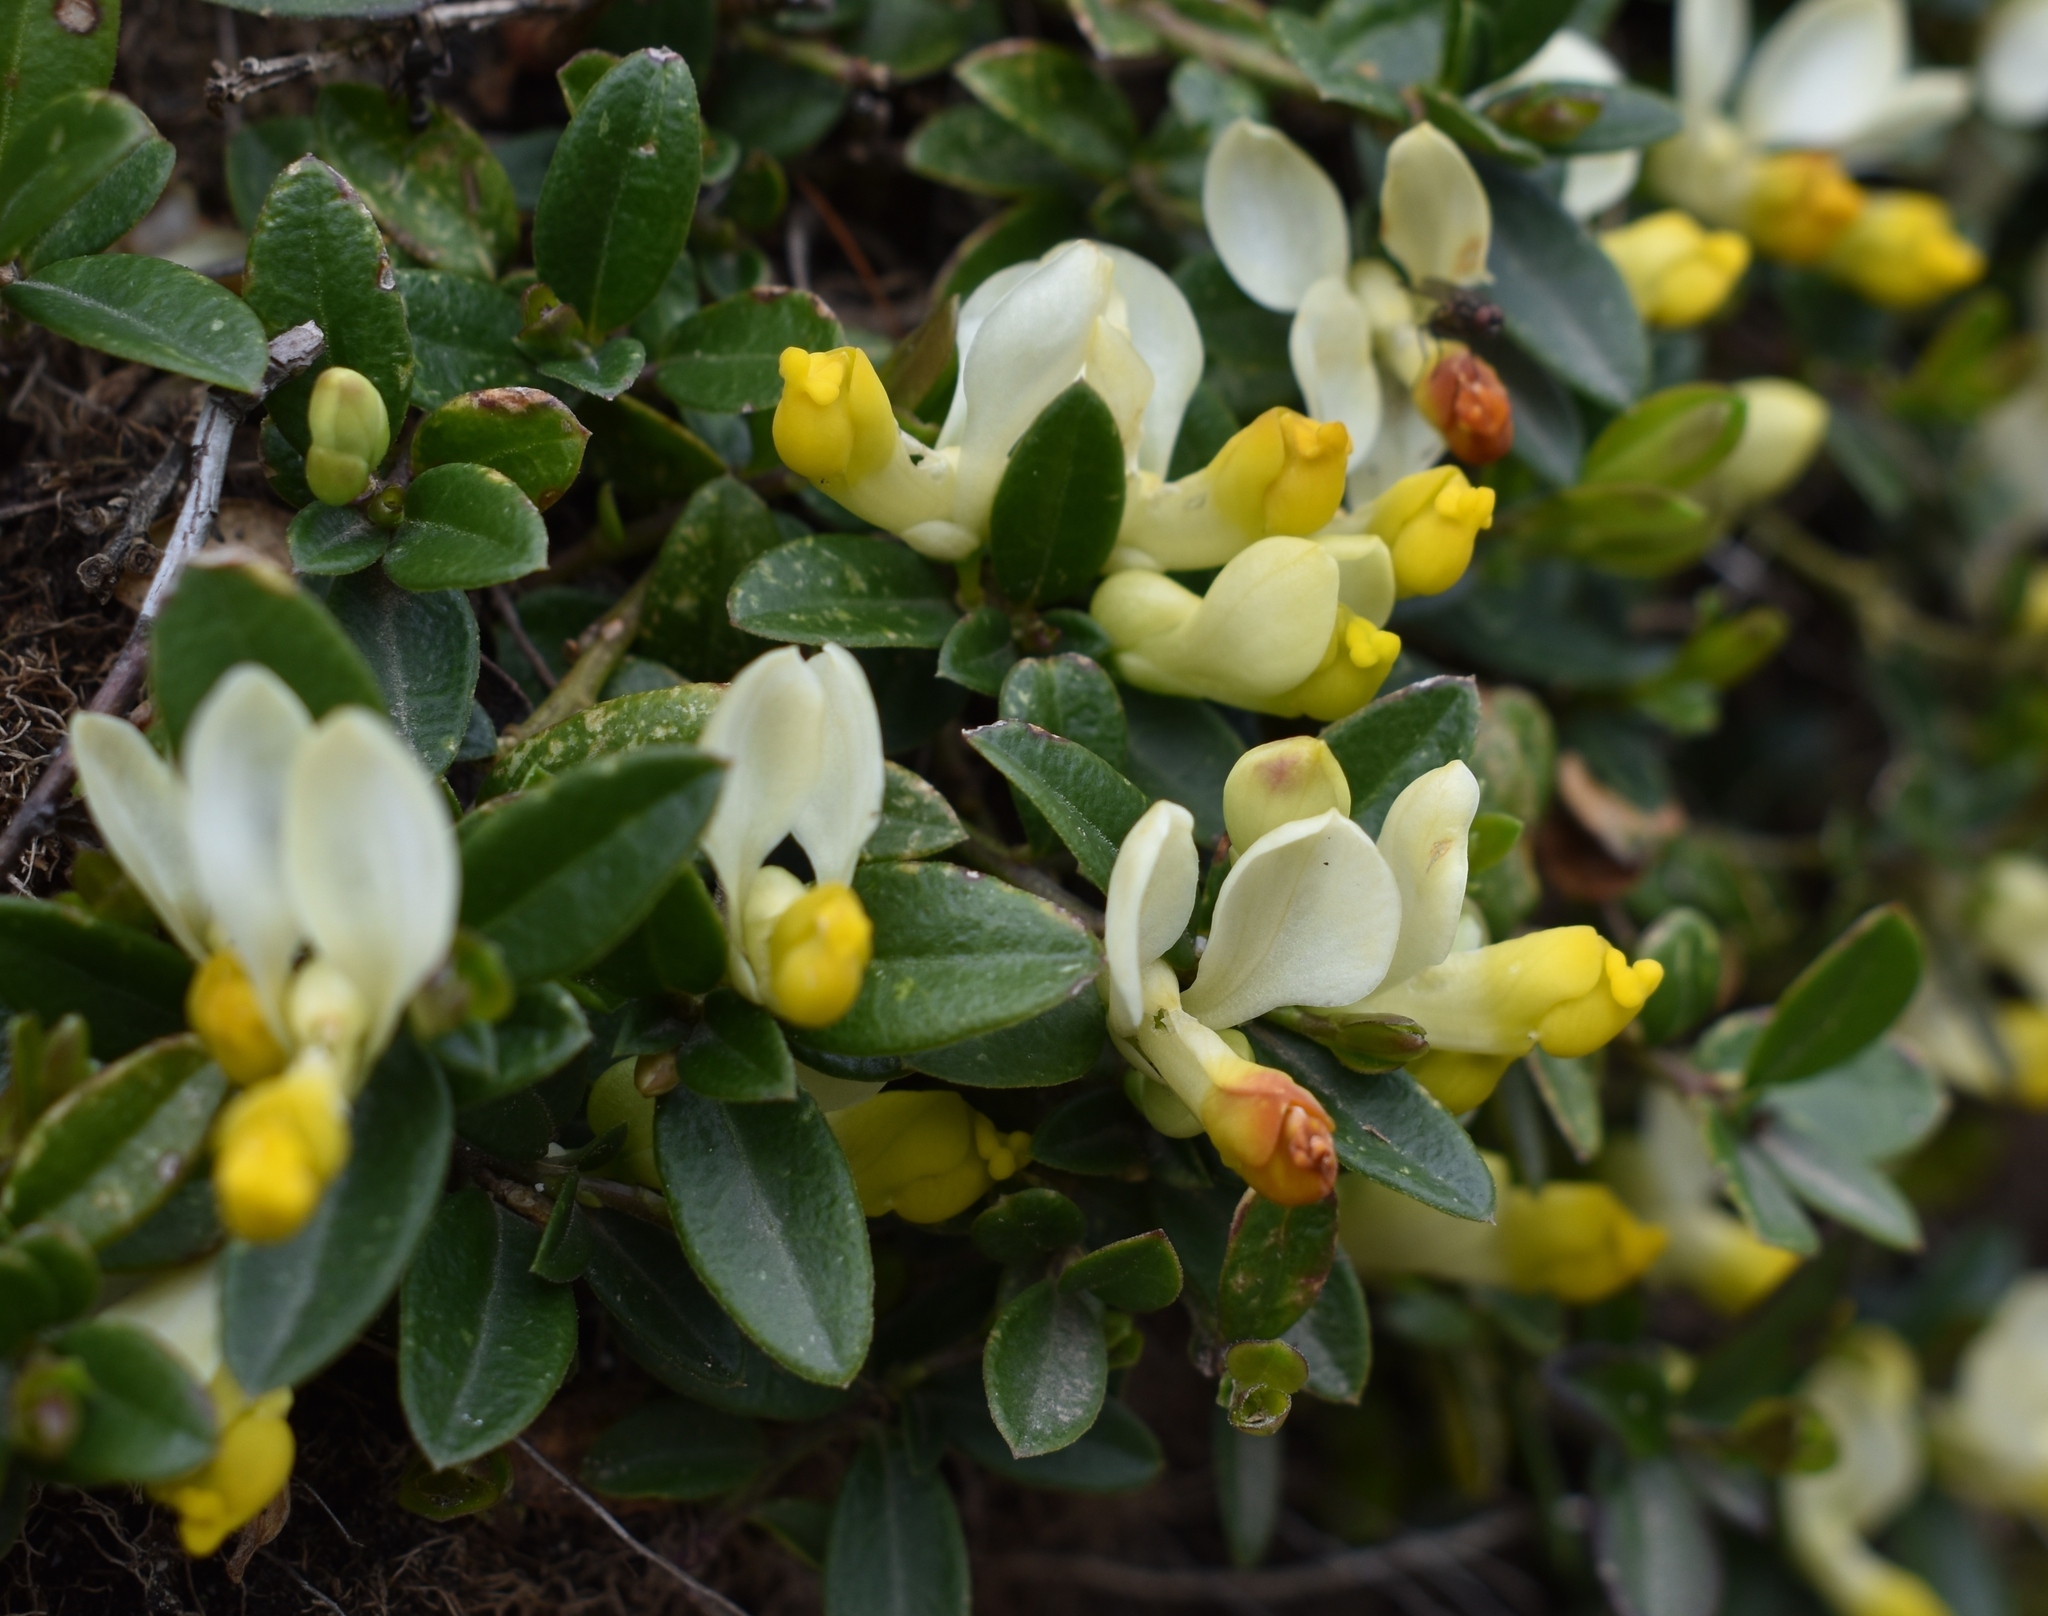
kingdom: Plantae
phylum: Tracheophyta
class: Magnoliopsida
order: Fabales
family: Polygalaceae
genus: Polygaloides
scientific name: Polygaloides chamaebuxus
